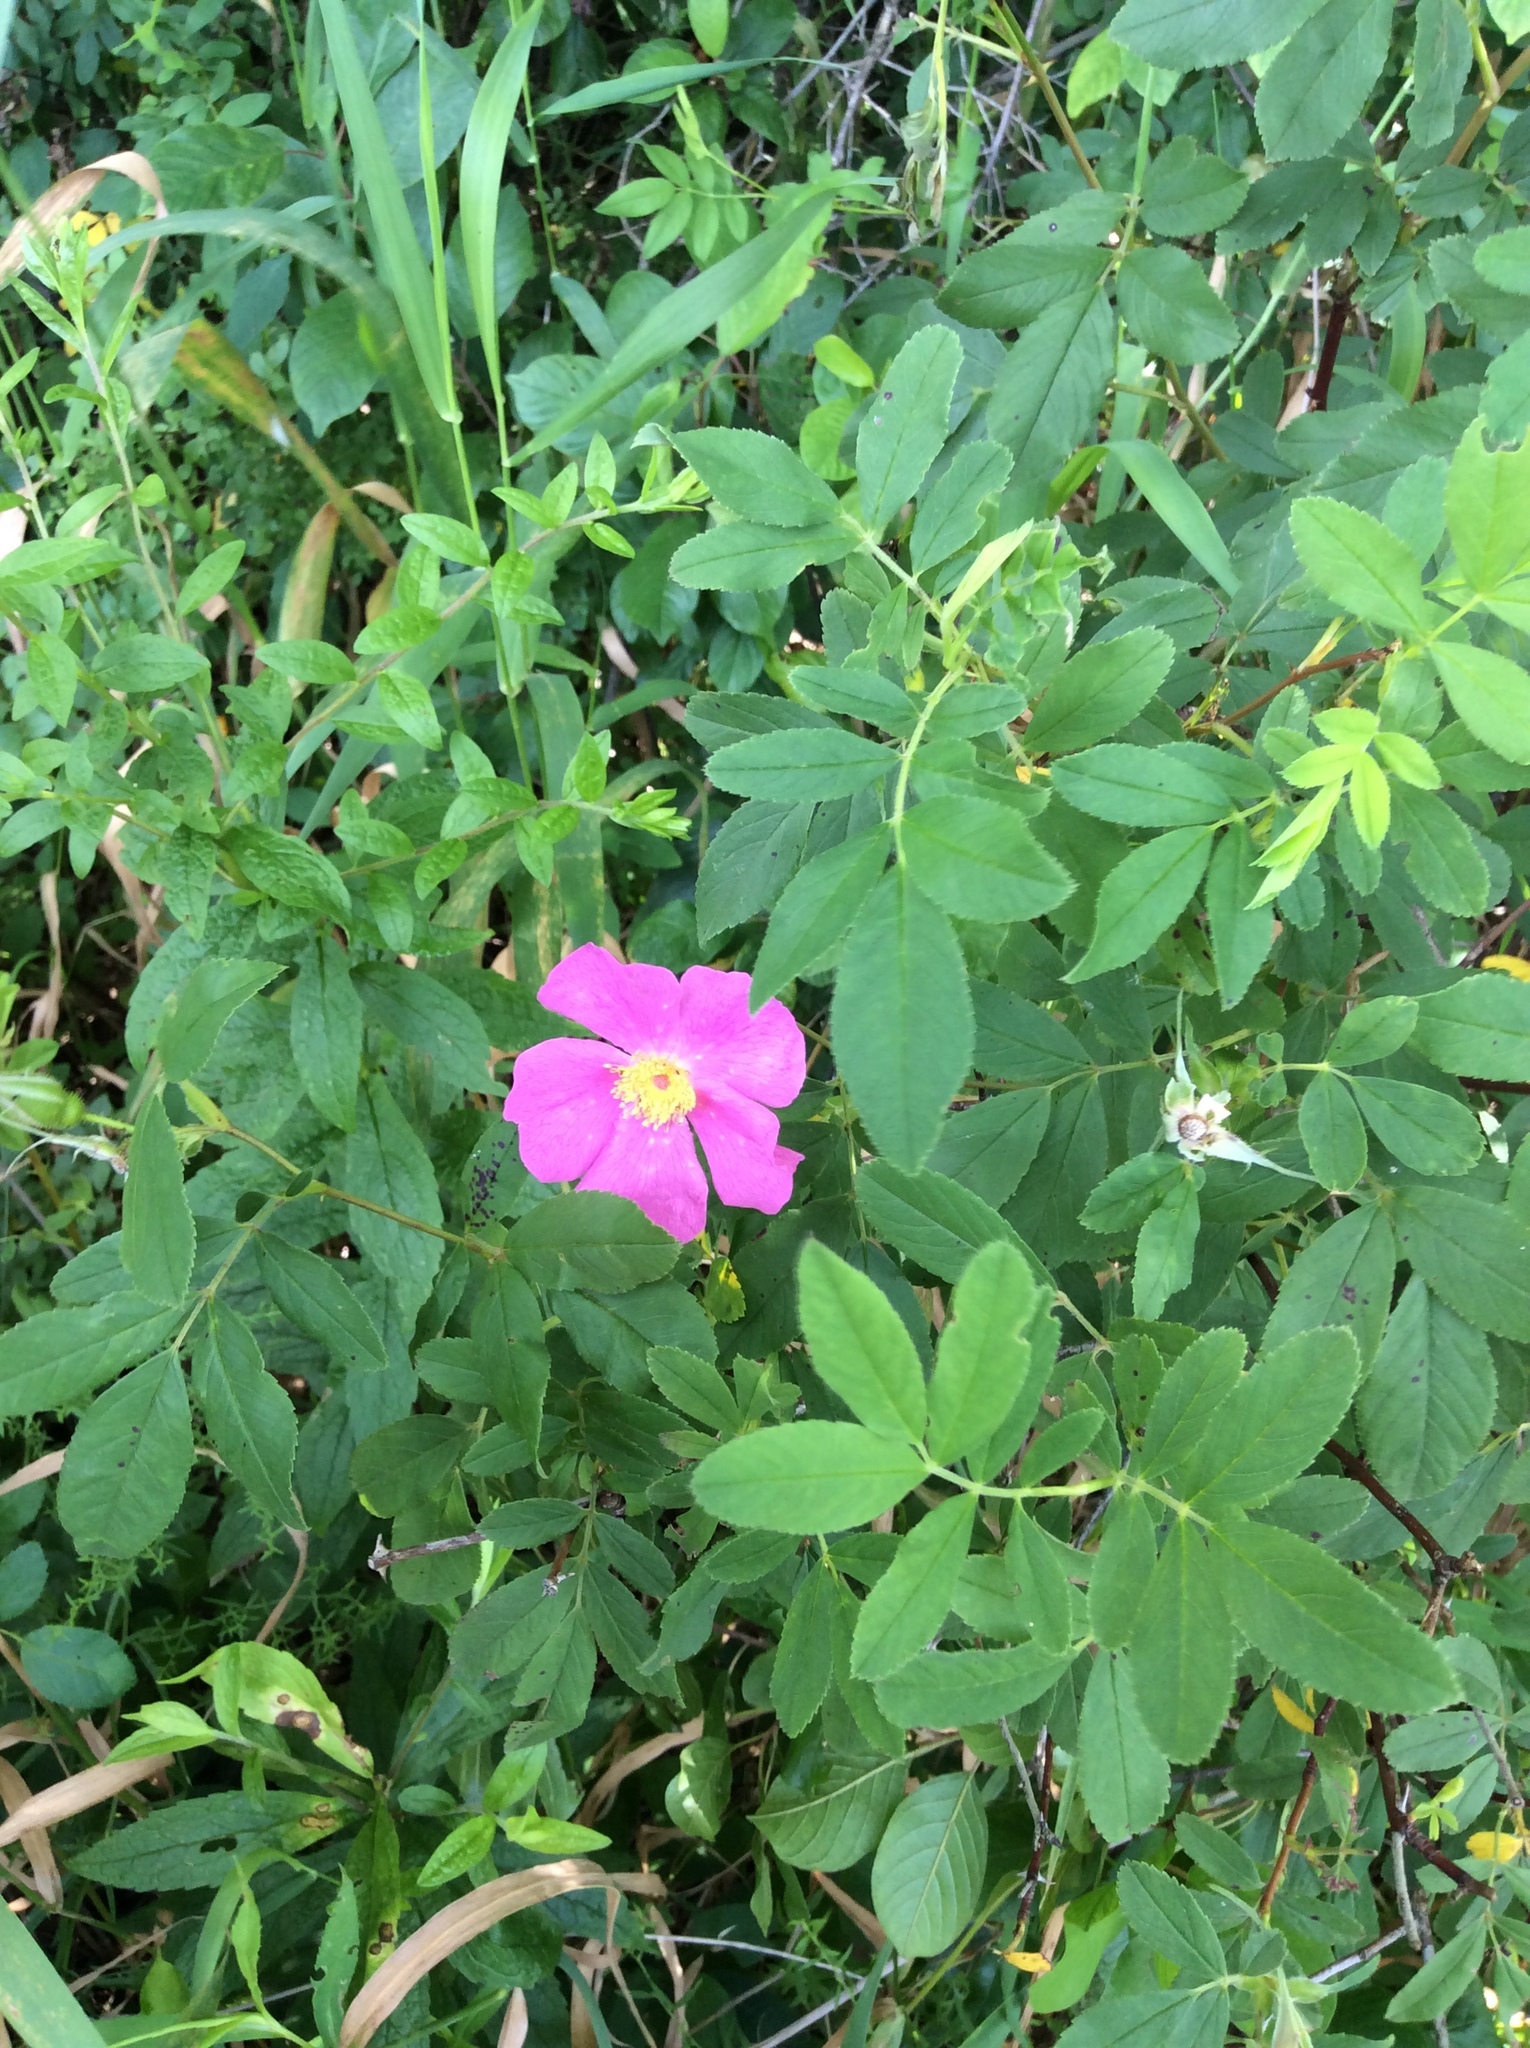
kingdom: Plantae
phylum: Tracheophyta
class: Magnoliopsida
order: Rosales
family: Rosaceae
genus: Rosa
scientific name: Rosa palustris
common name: Swamp rose
